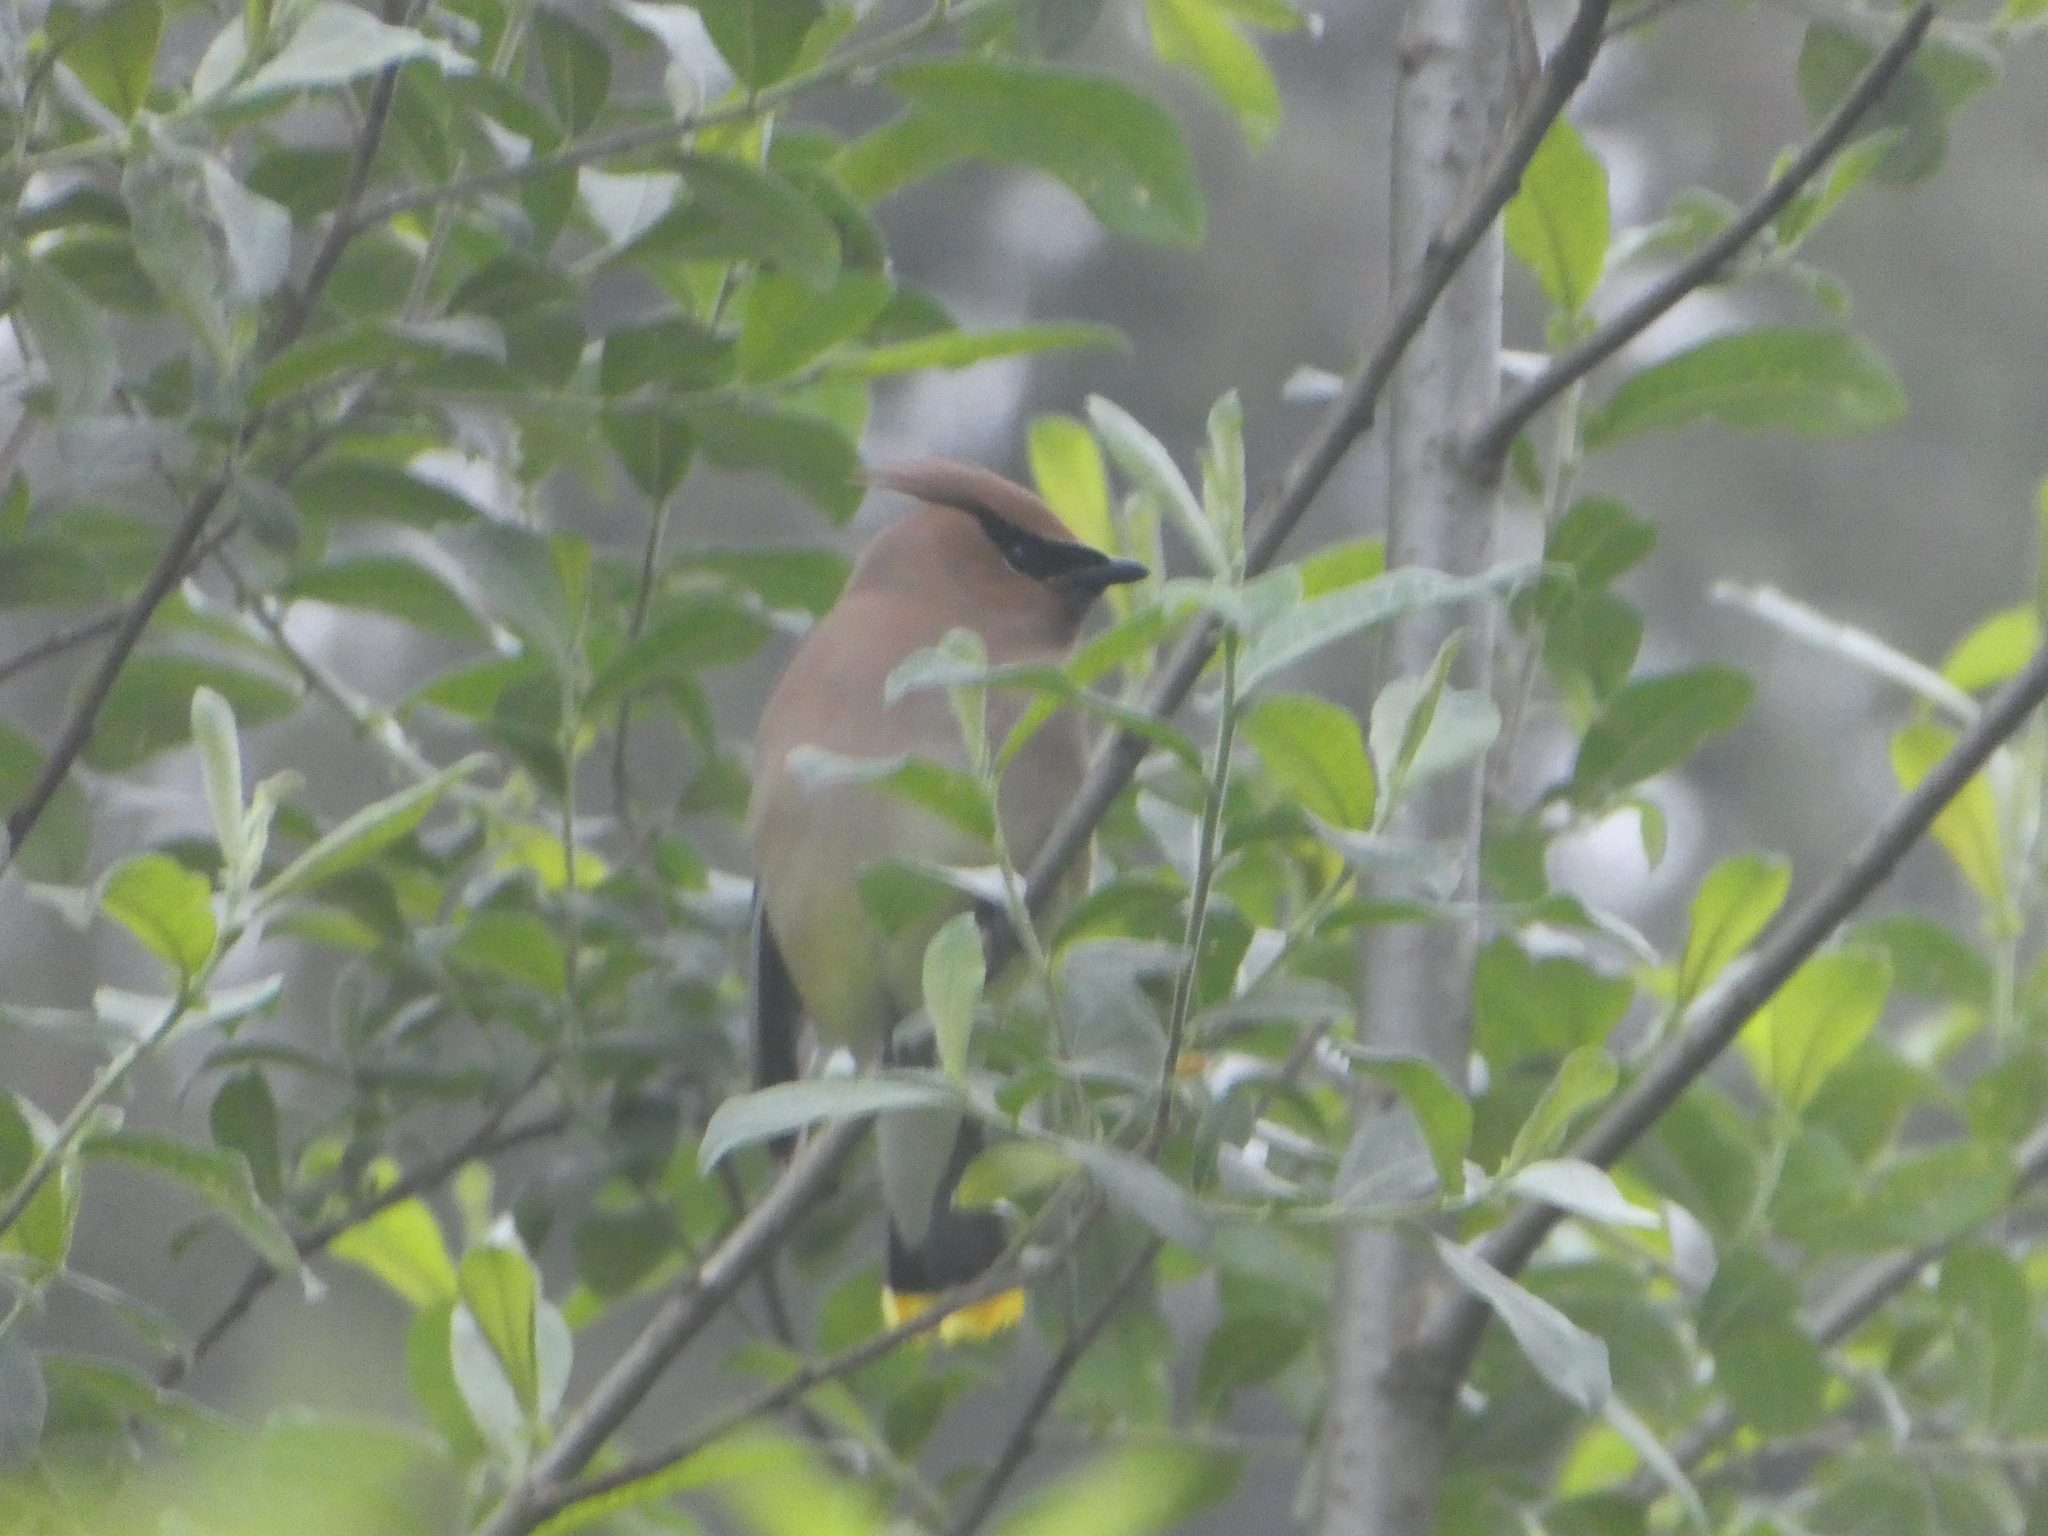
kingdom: Animalia
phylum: Chordata
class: Aves
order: Passeriformes
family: Bombycillidae
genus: Bombycilla
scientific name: Bombycilla cedrorum
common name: Cedar waxwing
